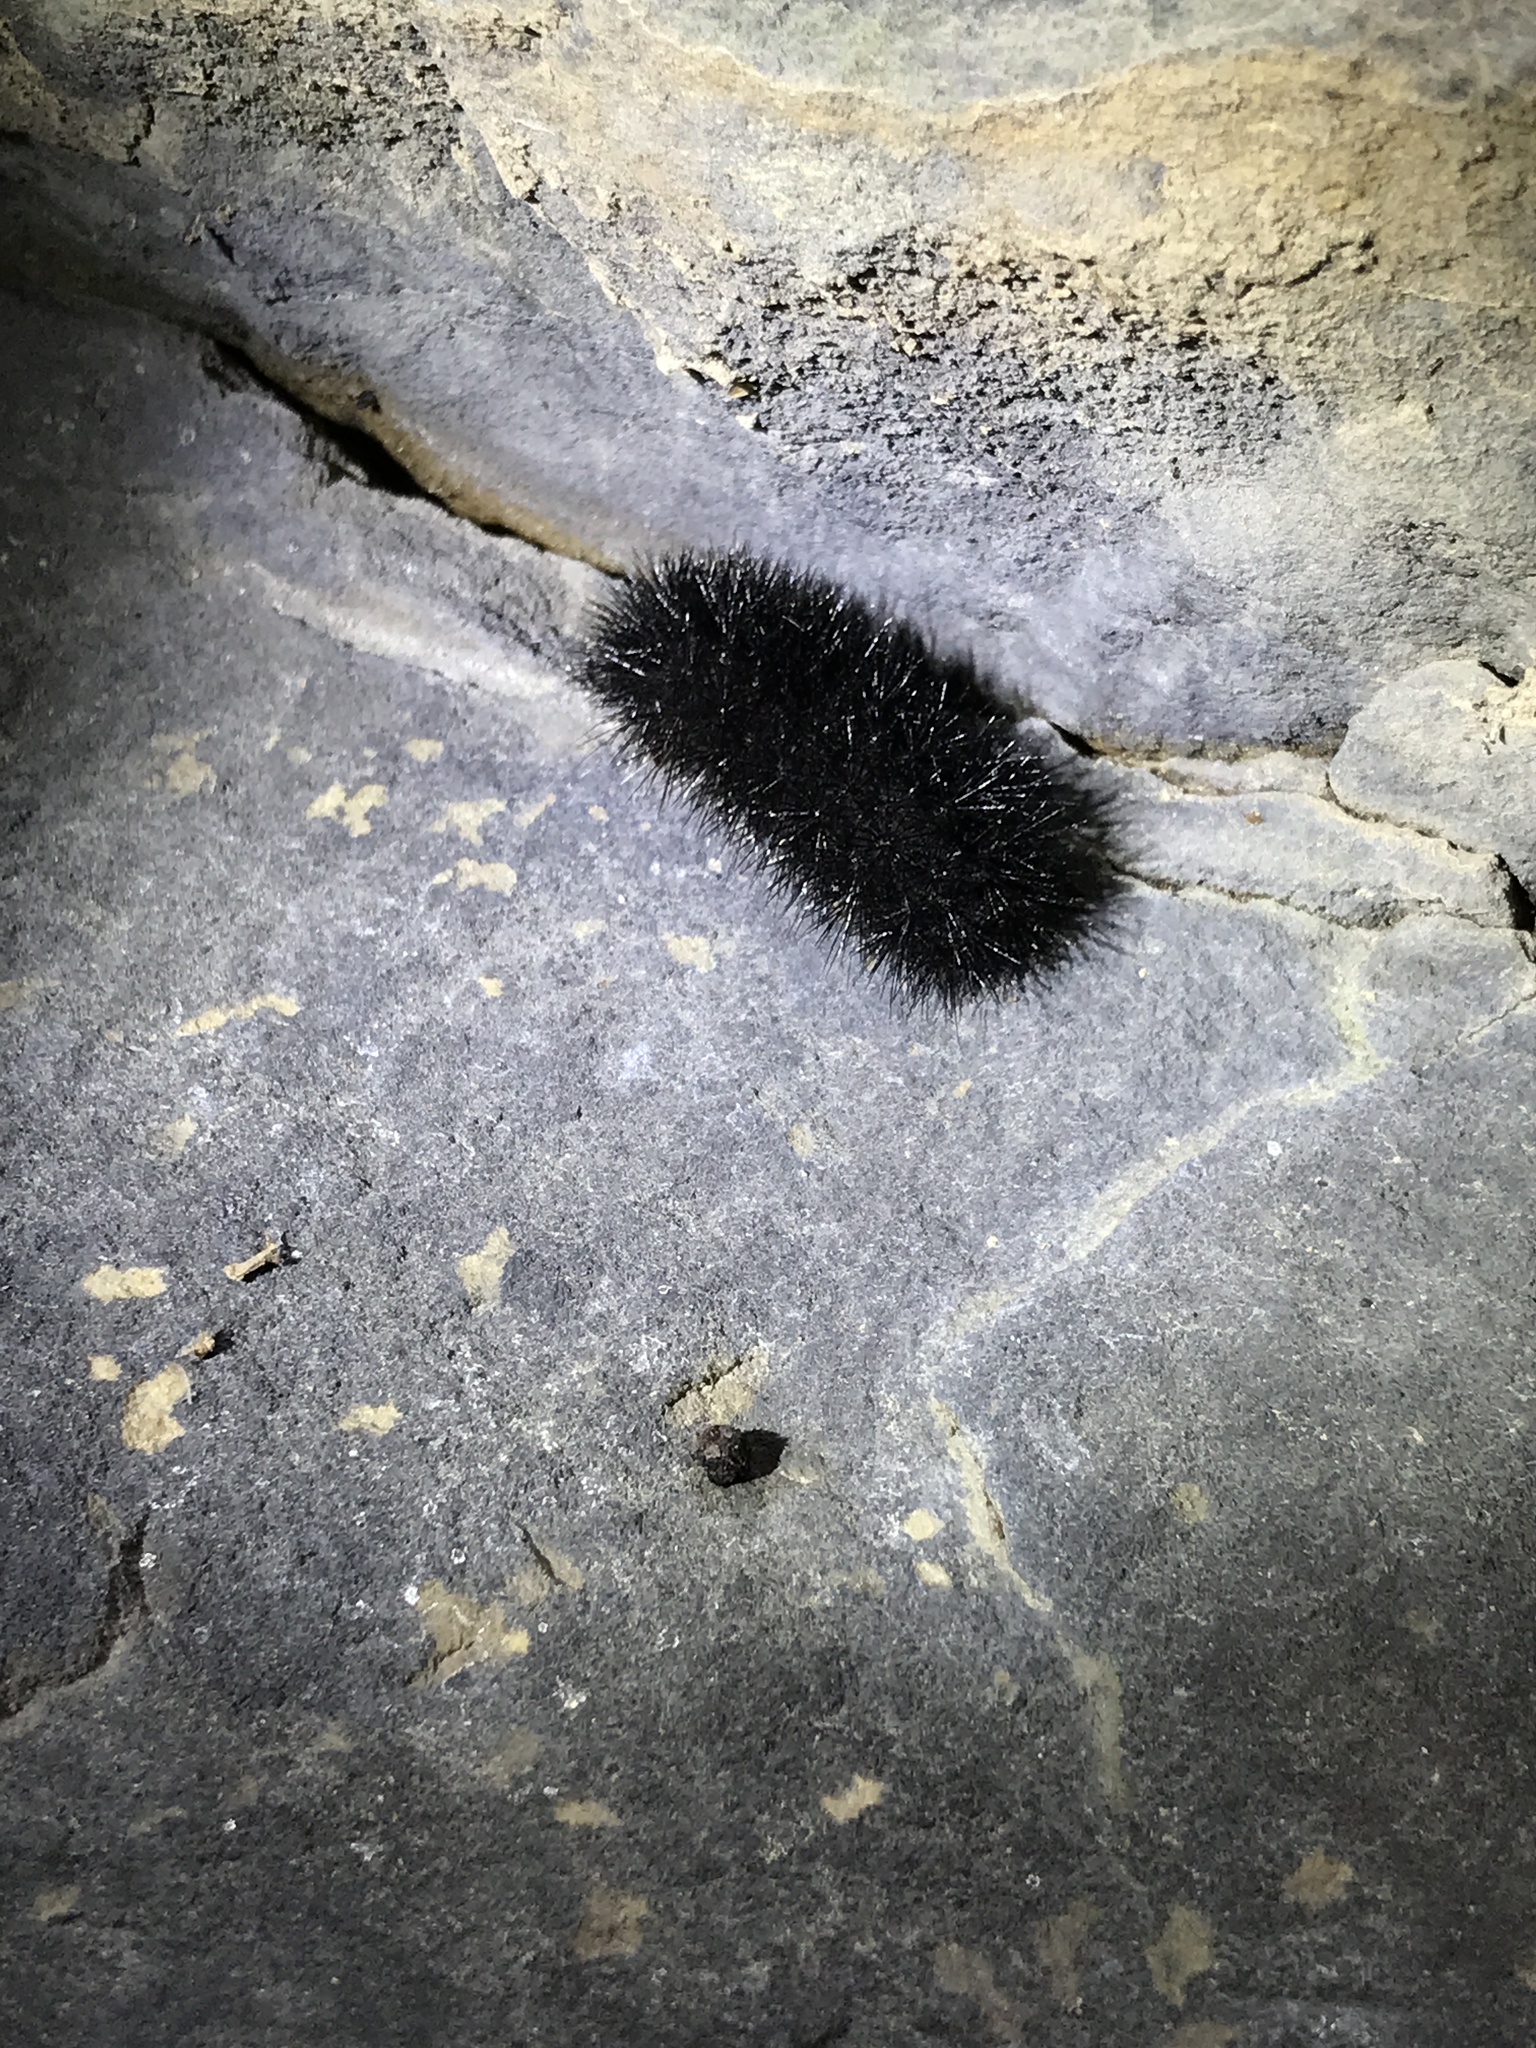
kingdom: Animalia
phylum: Arthropoda
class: Insecta
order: Lepidoptera
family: Erebidae
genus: Hypercompe
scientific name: Hypercompe scribonia
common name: Giant leopard moth
